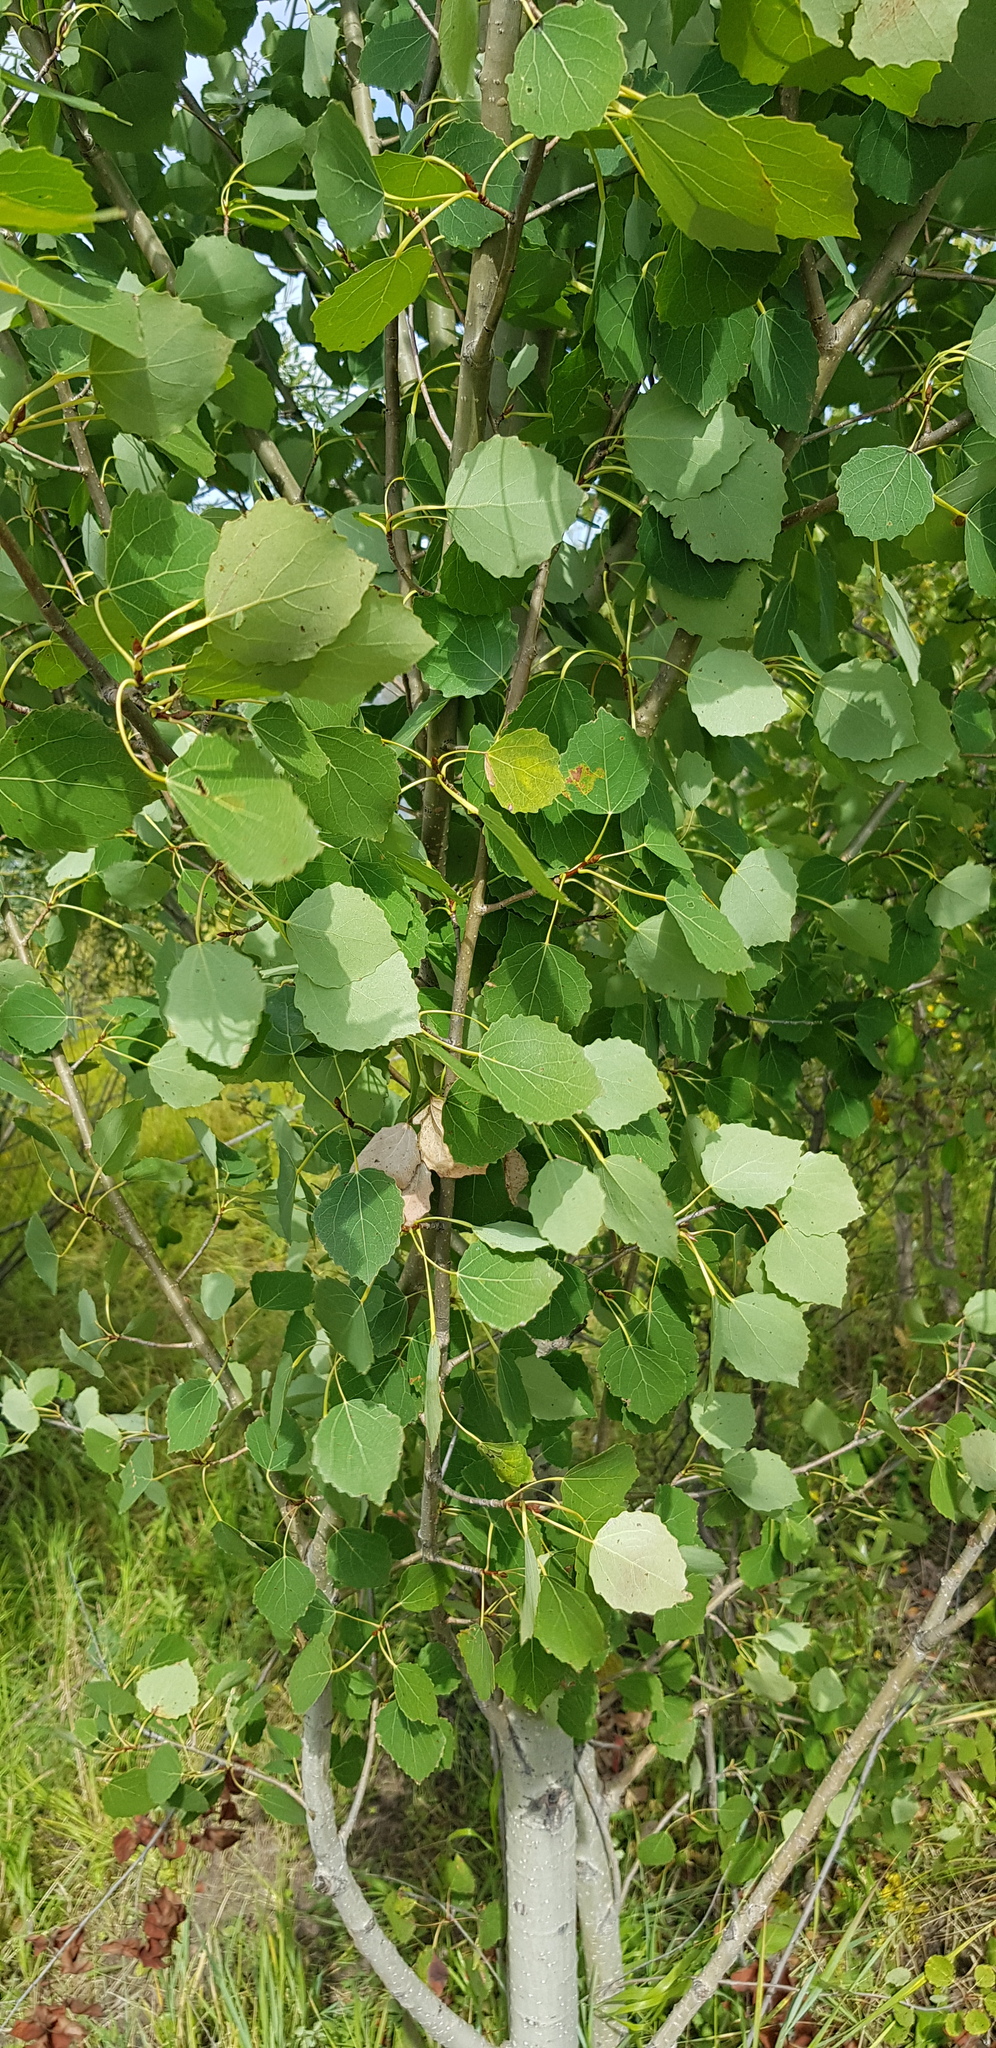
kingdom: Plantae
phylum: Tracheophyta
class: Magnoliopsida
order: Malpighiales
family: Salicaceae
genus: Populus
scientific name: Populus tremula
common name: European aspen
